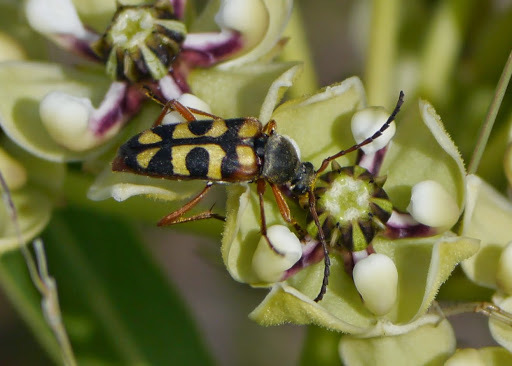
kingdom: Animalia
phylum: Arthropoda
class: Insecta
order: Coleoptera
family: Cerambycidae
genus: Typocerus
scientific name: Typocerus sinuatus
